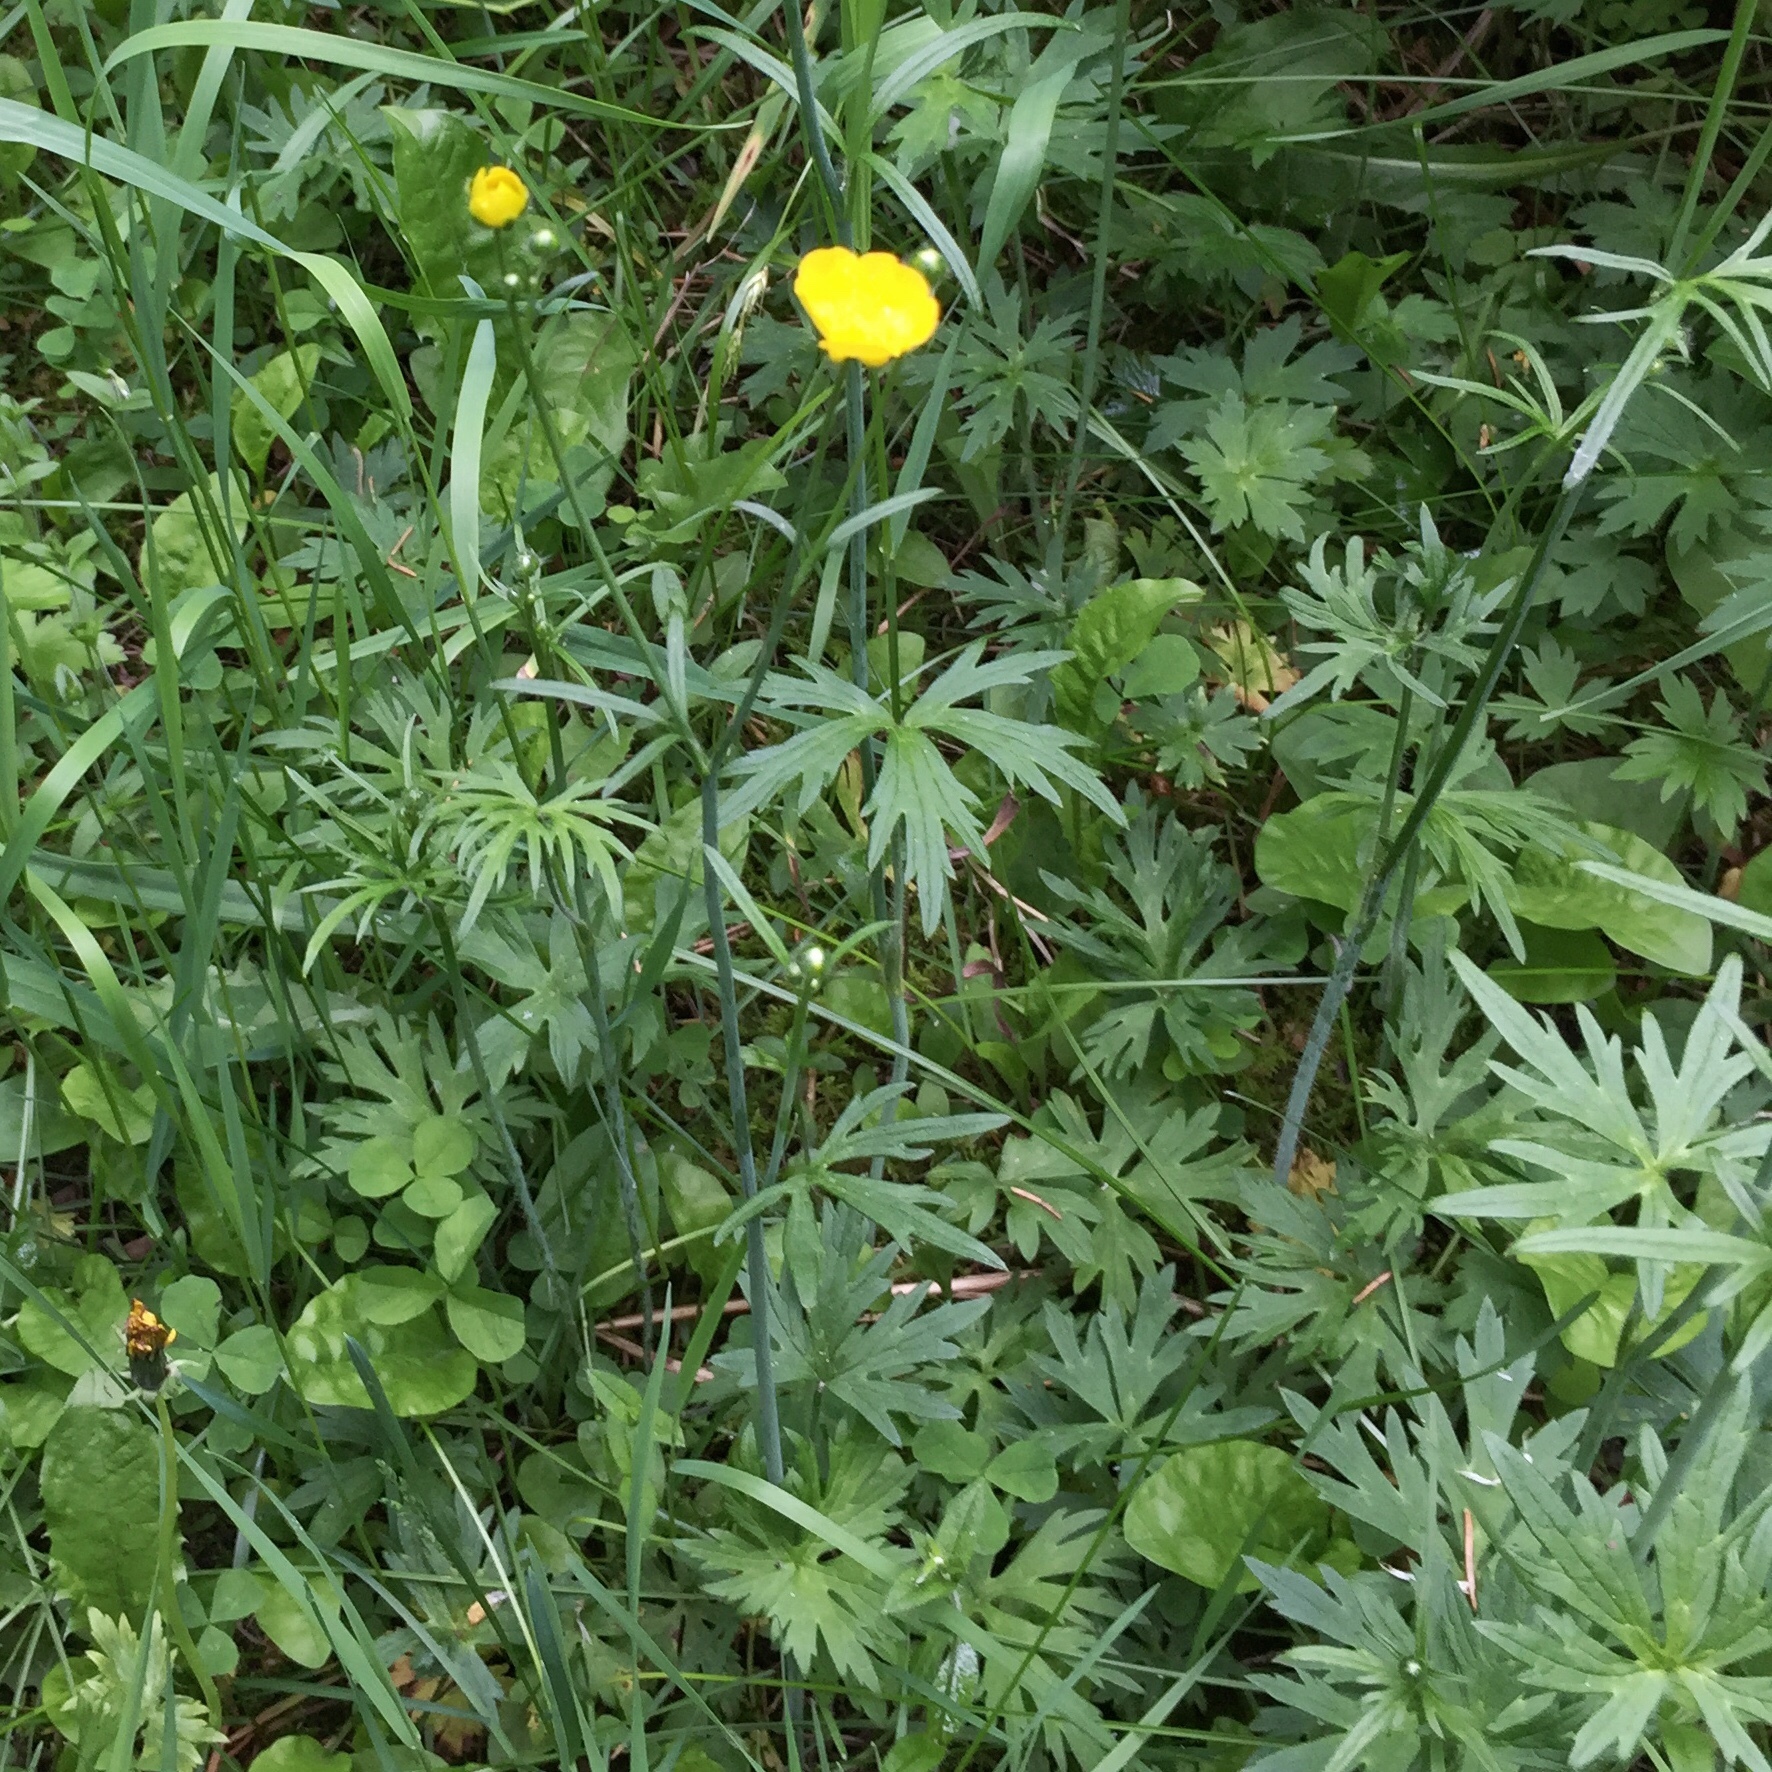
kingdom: Plantae
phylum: Tracheophyta
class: Magnoliopsida
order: Ranunculales
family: Ranunculaceae
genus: Ranunculus
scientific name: Ranunculus acris
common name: Meadow buttercup
